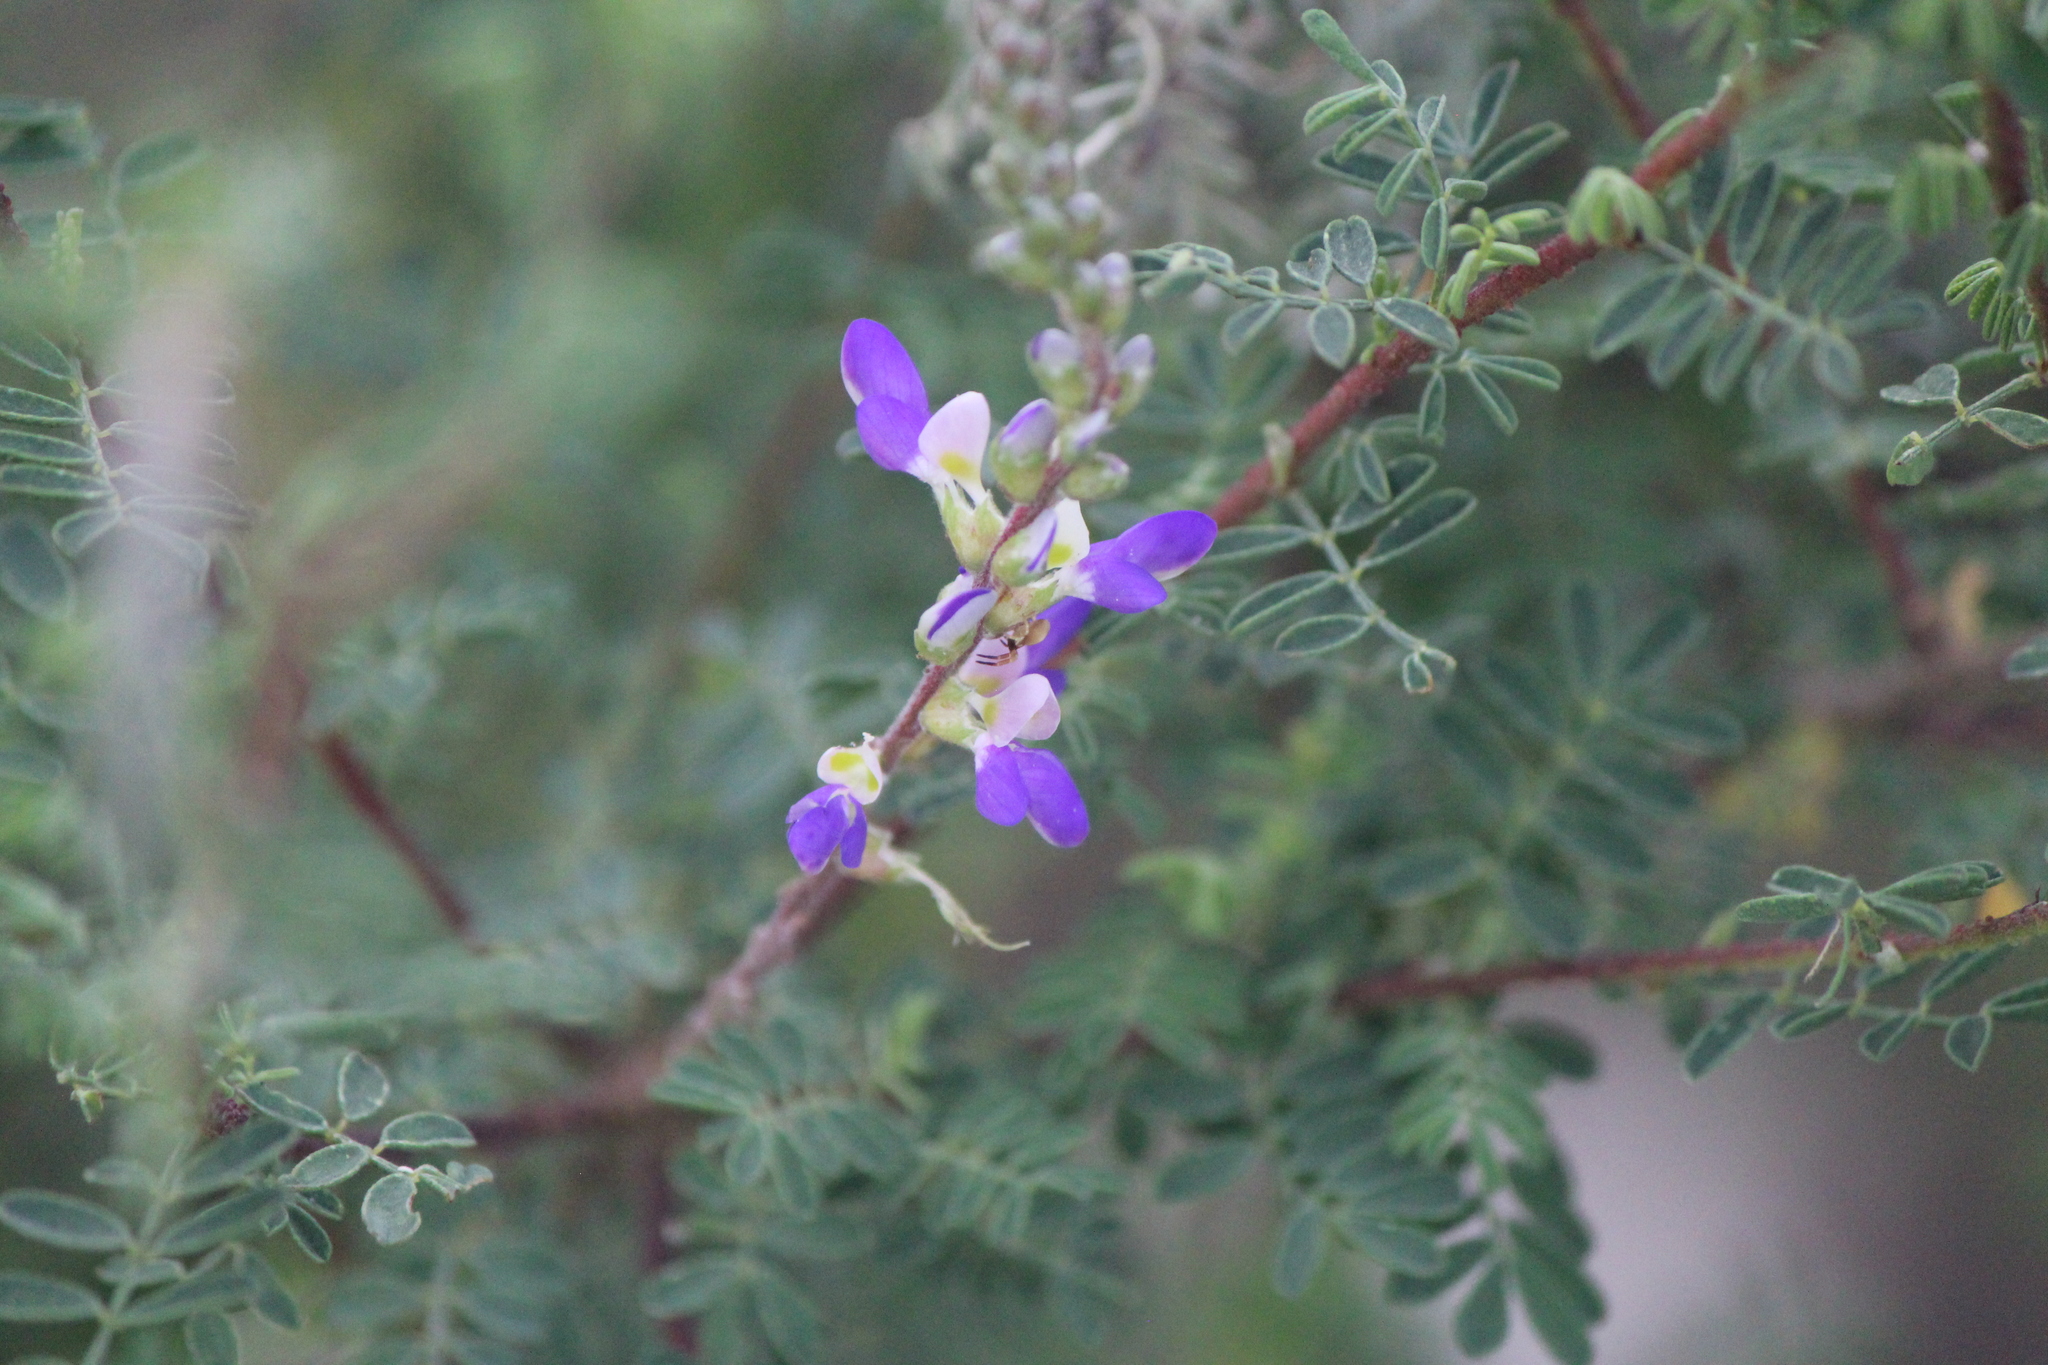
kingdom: Plantae
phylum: Tracheophyta
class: Magnoliopsida
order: Fabales
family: Fabaceae
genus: Dalea
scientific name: Dalea bicolor
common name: Silver prairie-clover
